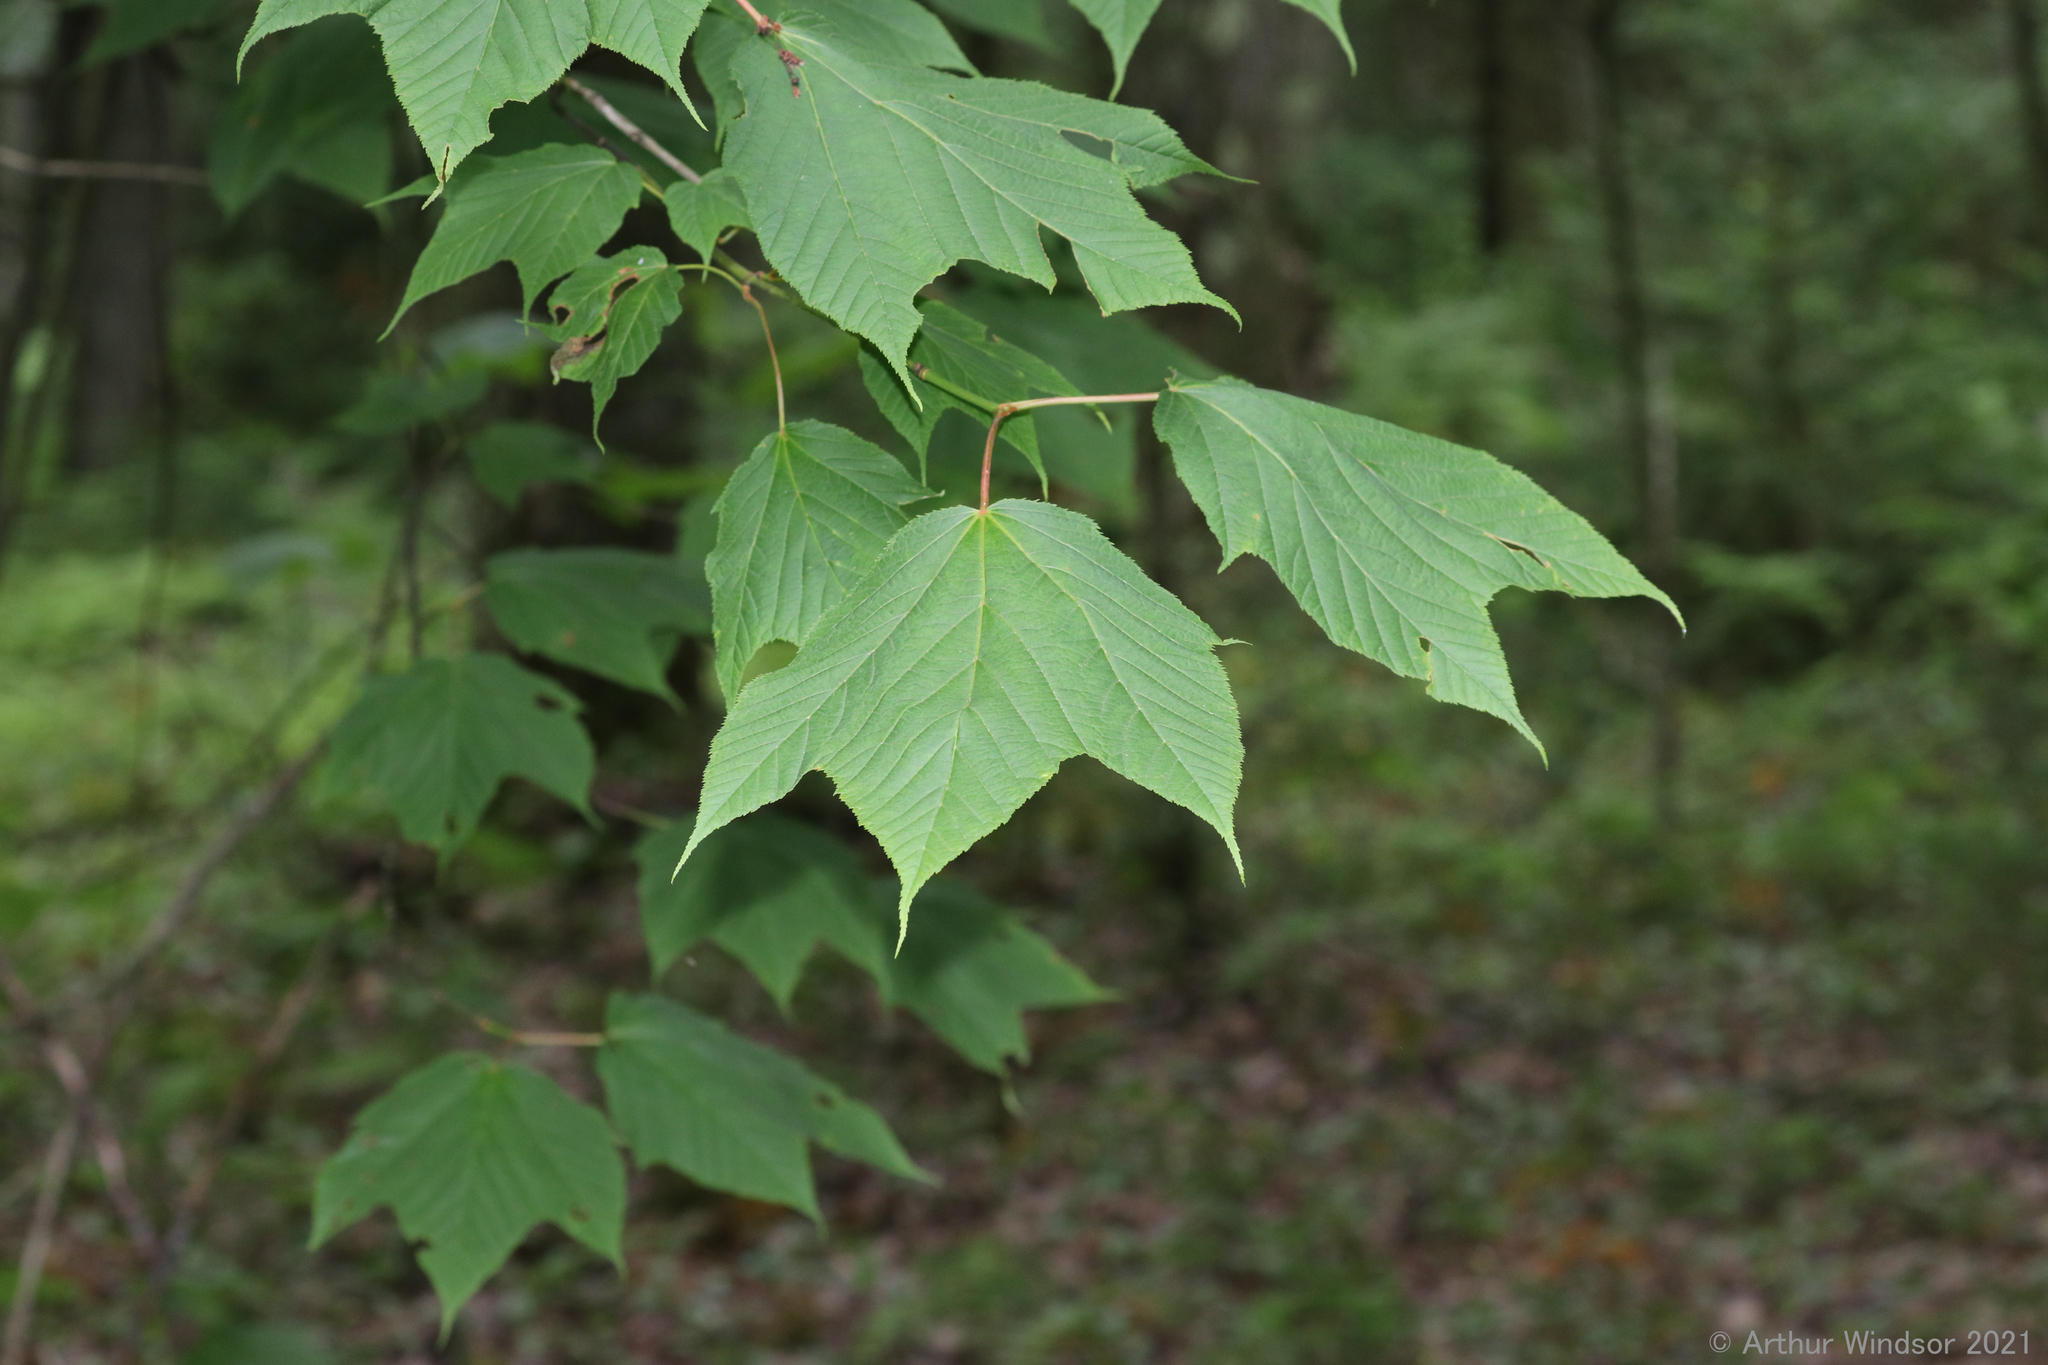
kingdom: Plantae
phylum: Tracheophyta
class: Magnoliopsida
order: Sapindales
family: Sapindaceae
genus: Acer
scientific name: Acer pensylvanicum
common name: Moosewood
